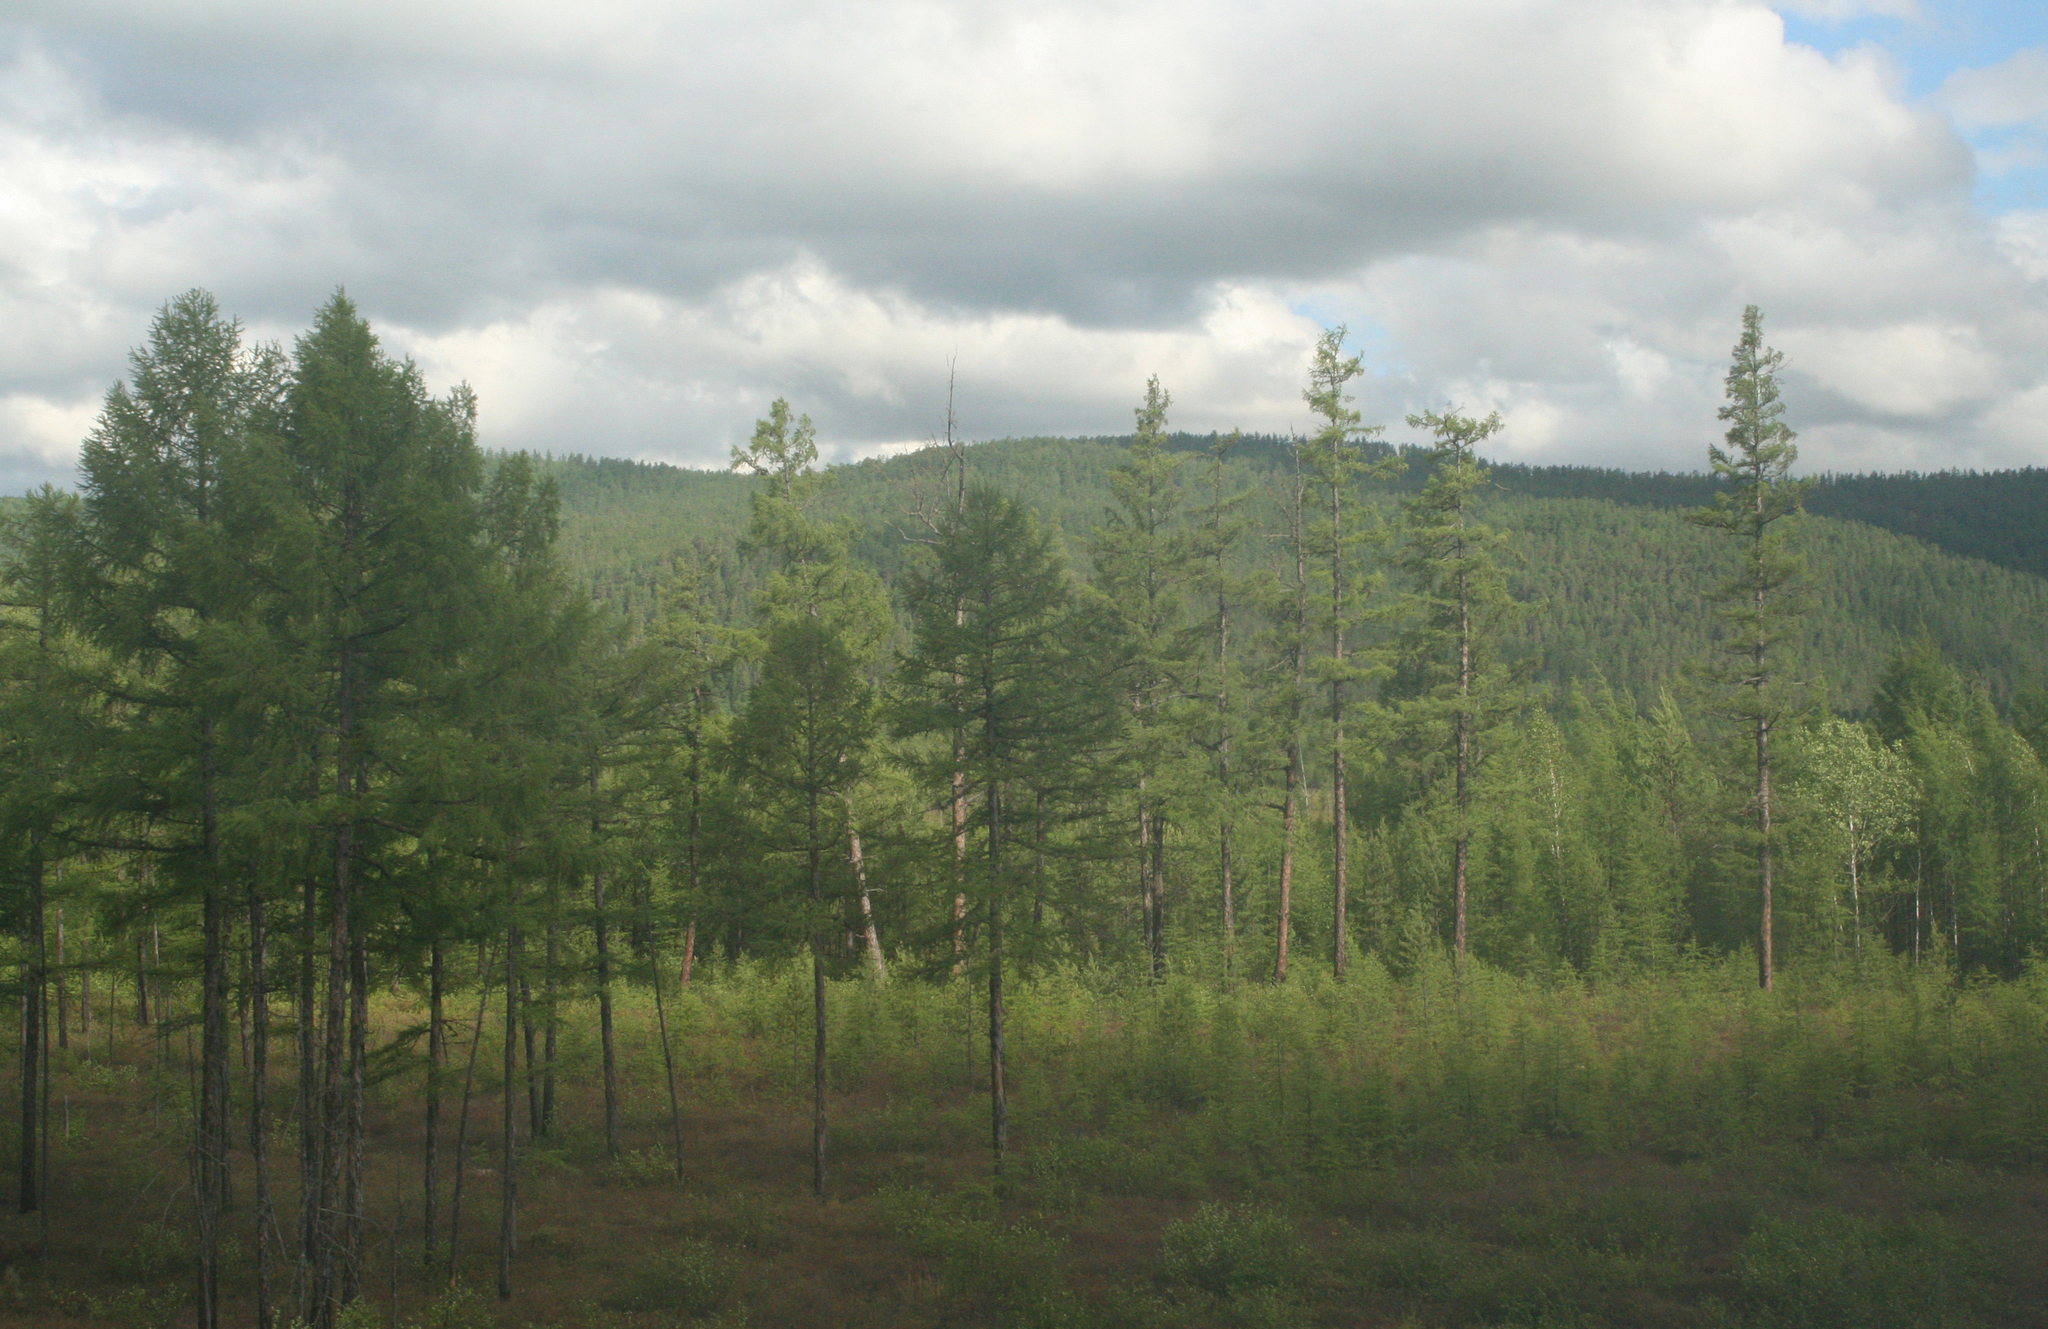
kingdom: Plantae
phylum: Tracheophyta
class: Pinopsida
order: Pinales
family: Pinaceae
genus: Larix
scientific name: Larix gmelinii
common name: Dahurian larch
